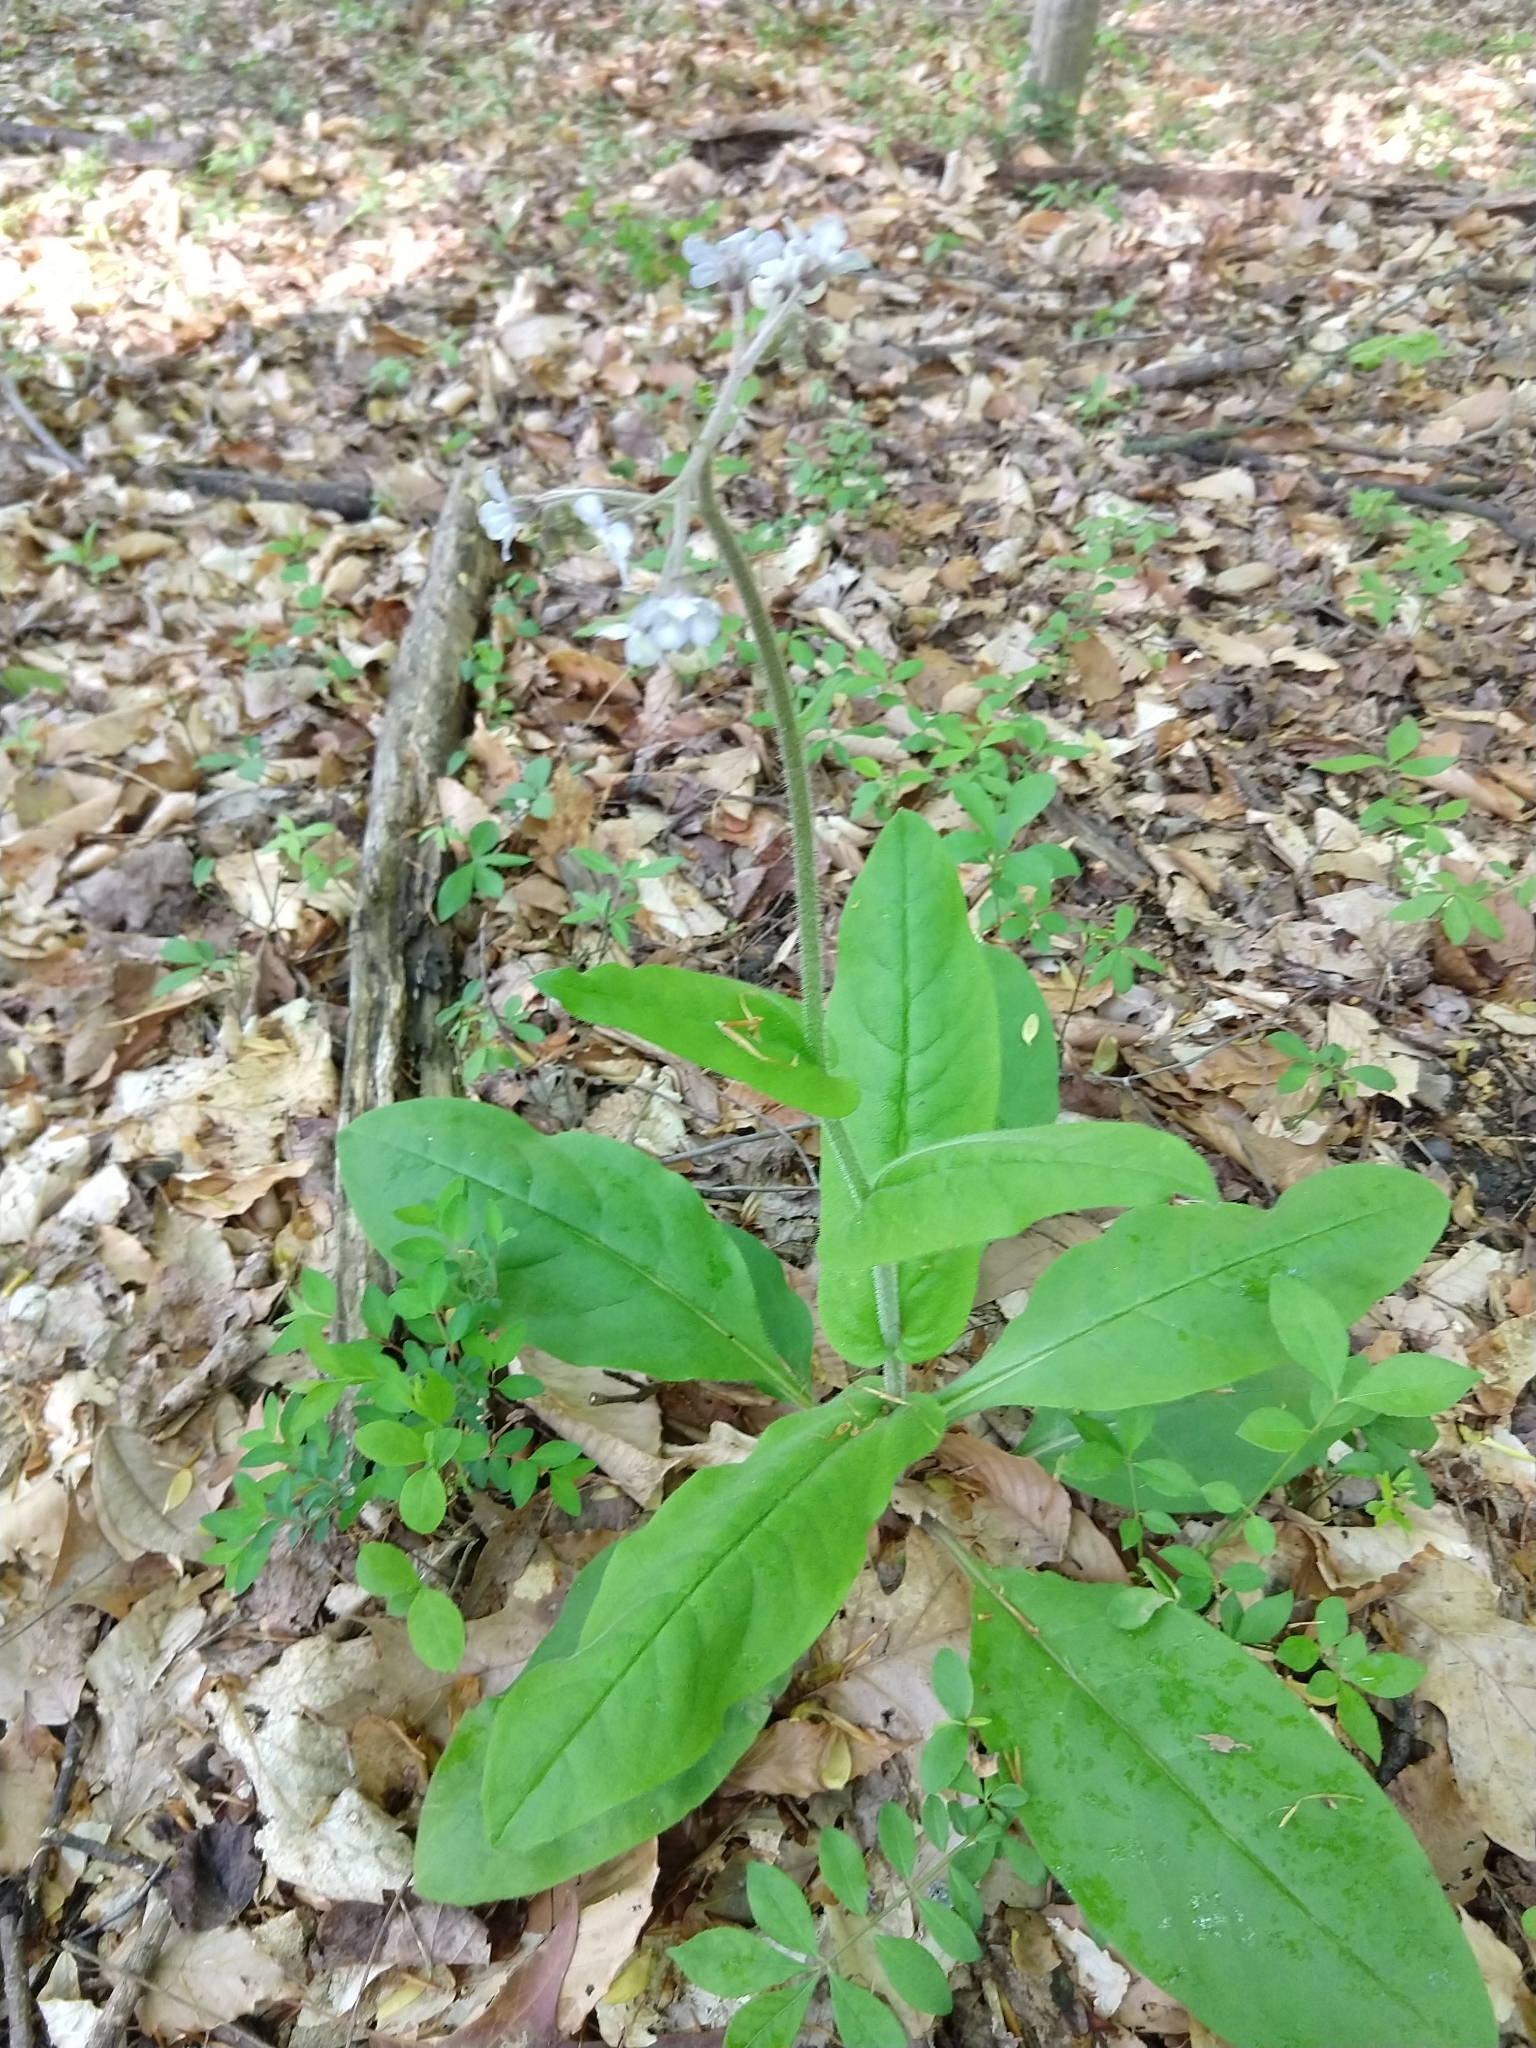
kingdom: Plantae
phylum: Tracheophyta
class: Magnoliopsida
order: Boraginales
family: Boraginaceae
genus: Andersonglossum
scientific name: Andersonglossum virginianum
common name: Wild comfrey
